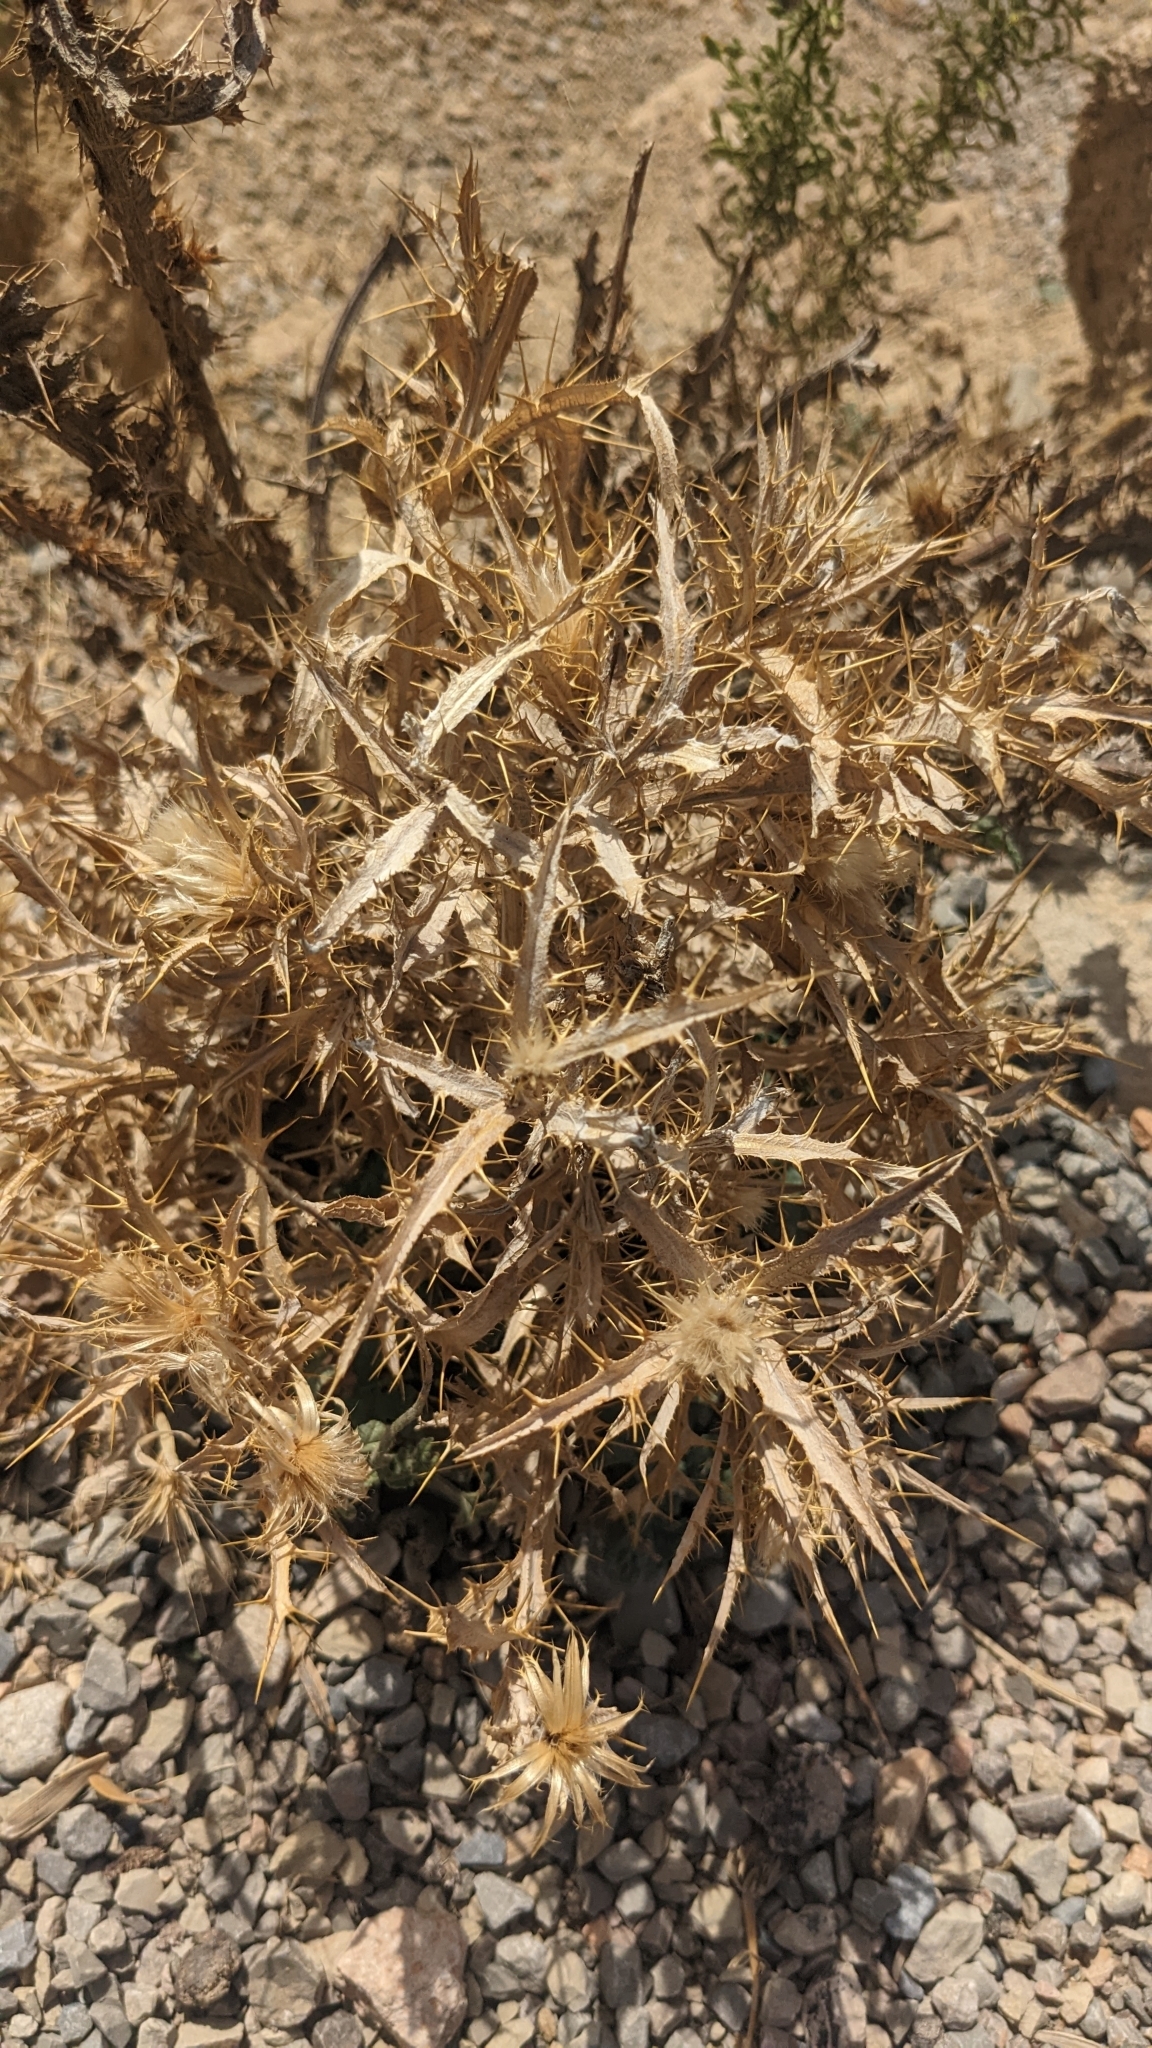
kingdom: Plantae
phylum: Tracheophyta
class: Magnoliopsida
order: Asterales
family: Asteraceae
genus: Picnomon
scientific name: Picnomon acarna
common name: Soldier thistle
